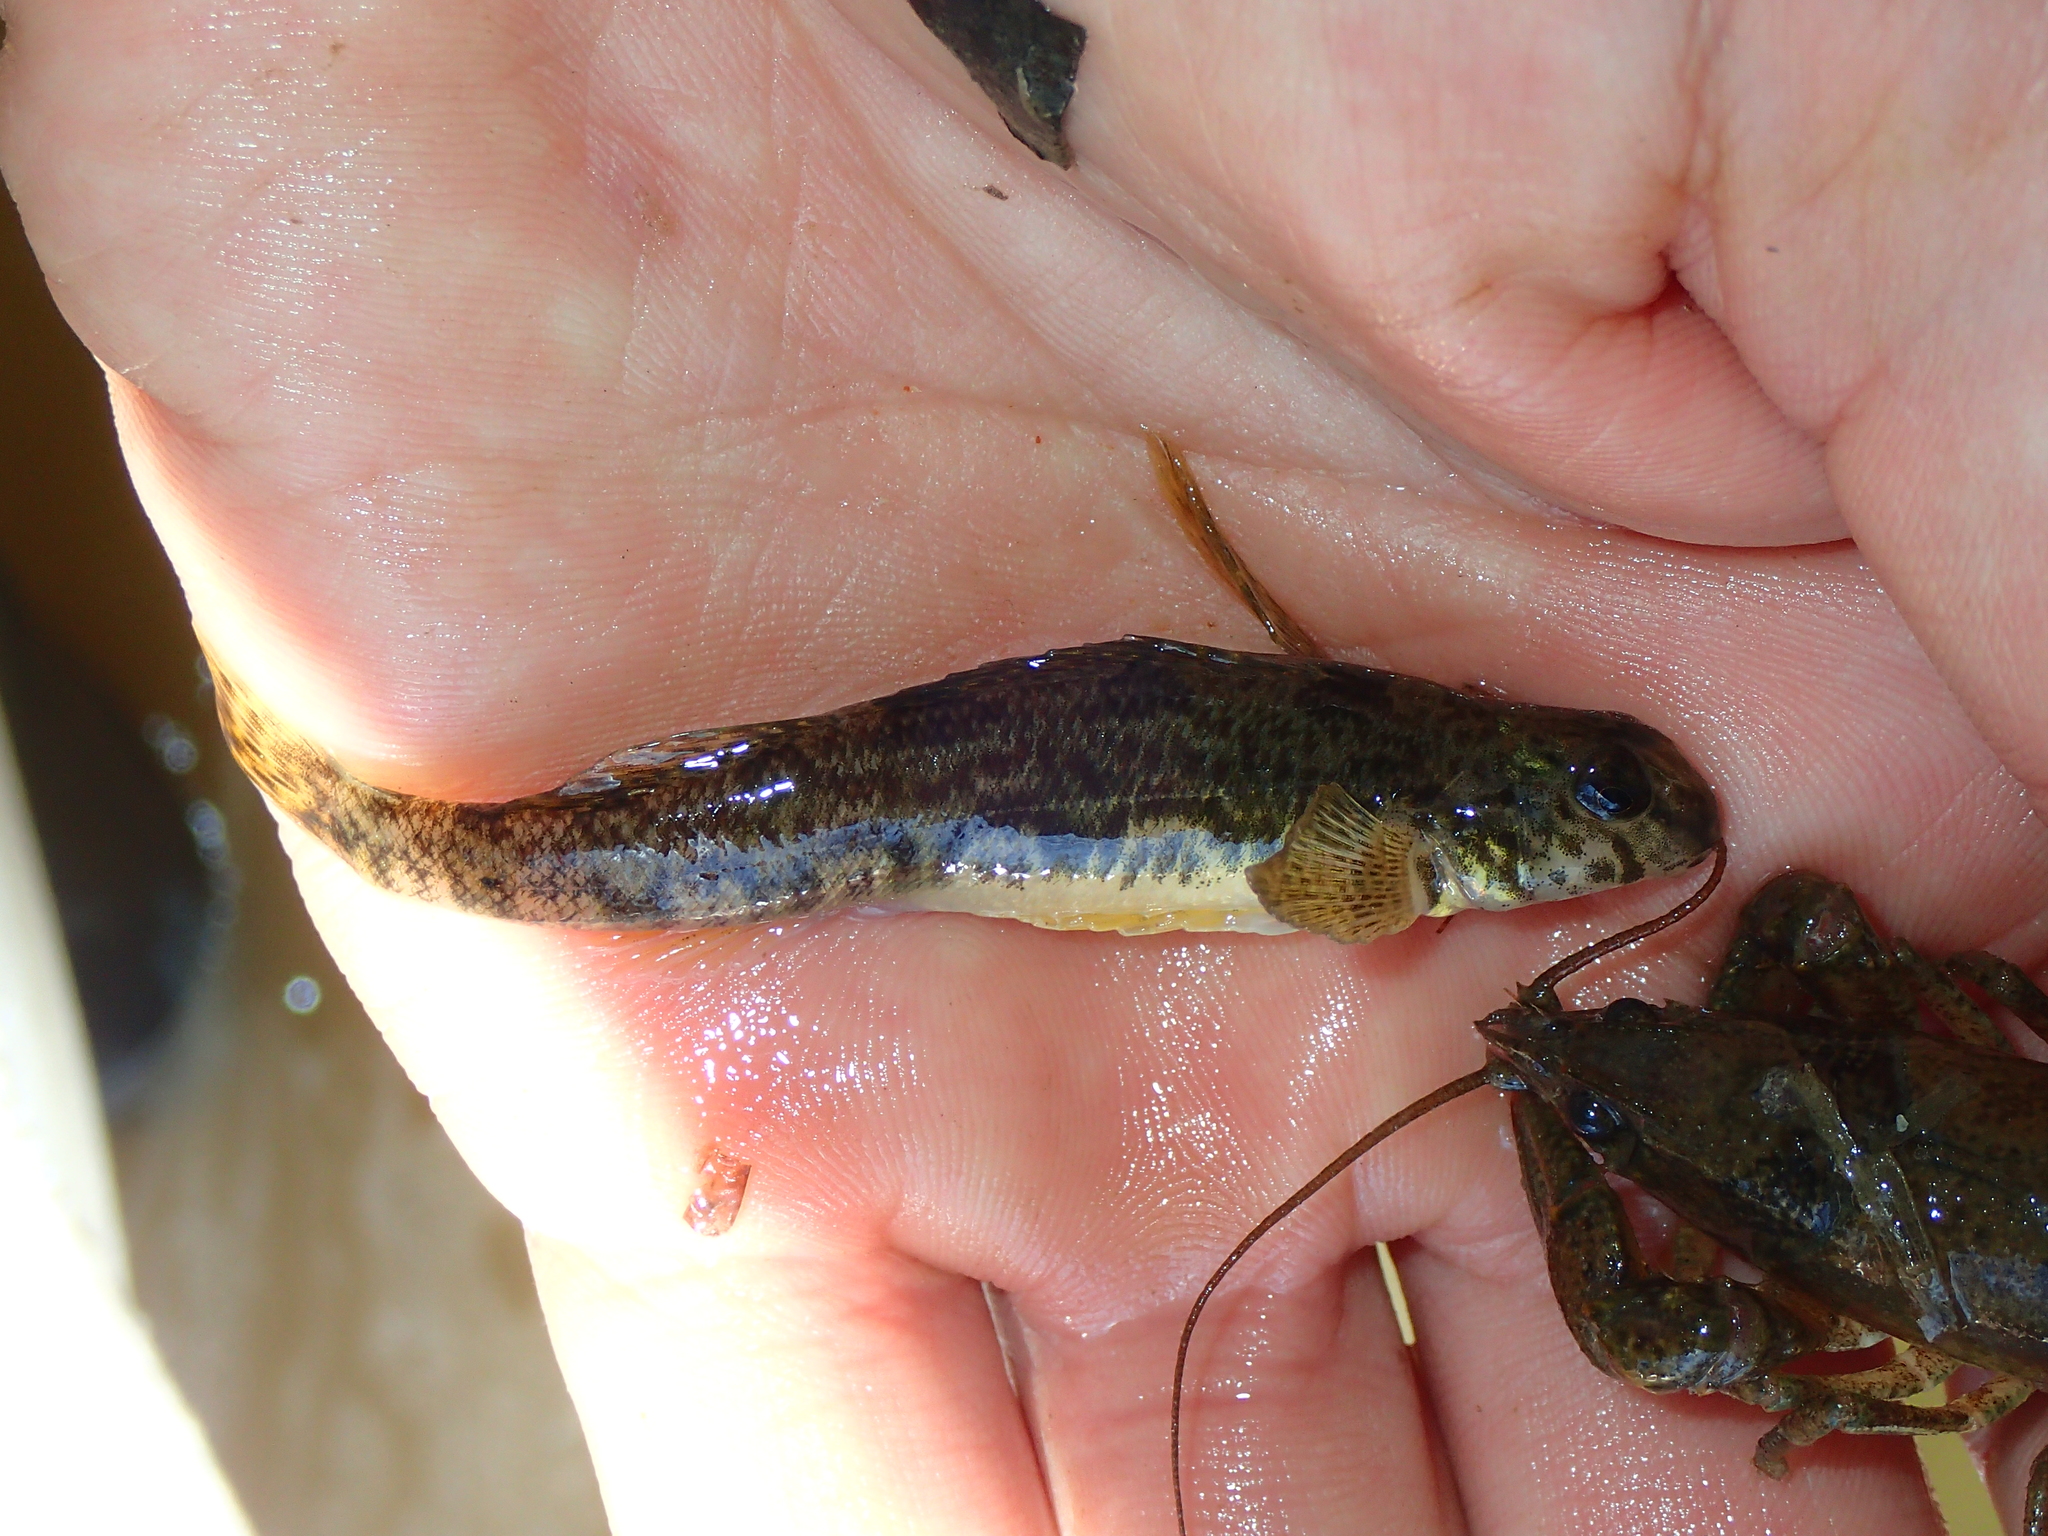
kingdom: Animalia
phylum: Chordata
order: Perciformes
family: Percidae
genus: Etheostoma
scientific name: Etheostoma blennioides
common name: Greenside darter
